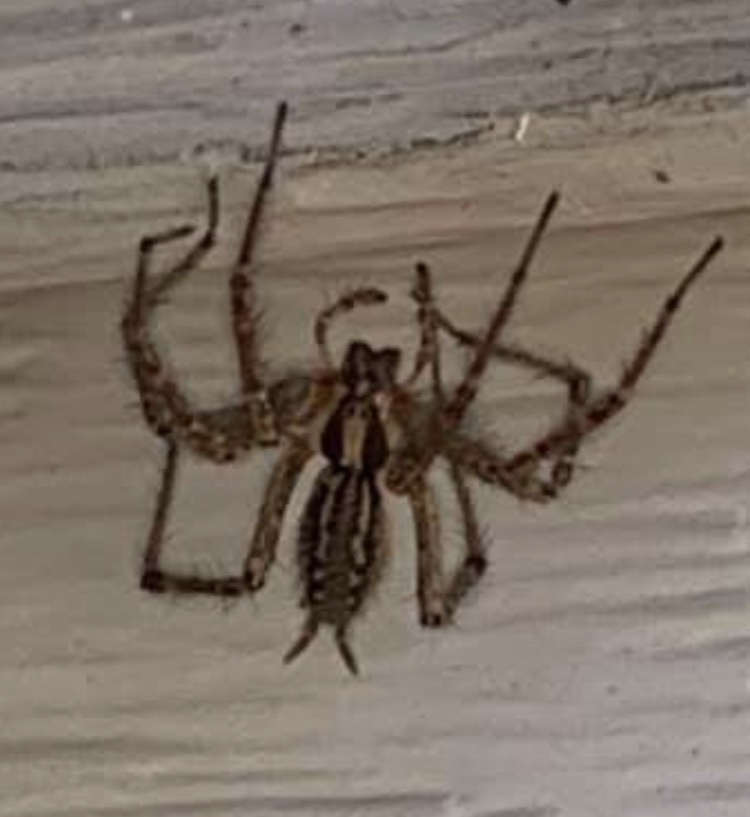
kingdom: Animalia
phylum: Arthropoda
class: Arachnida
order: Araneae
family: Agelenidae
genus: Agelenopsis
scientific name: Agelenopsis
